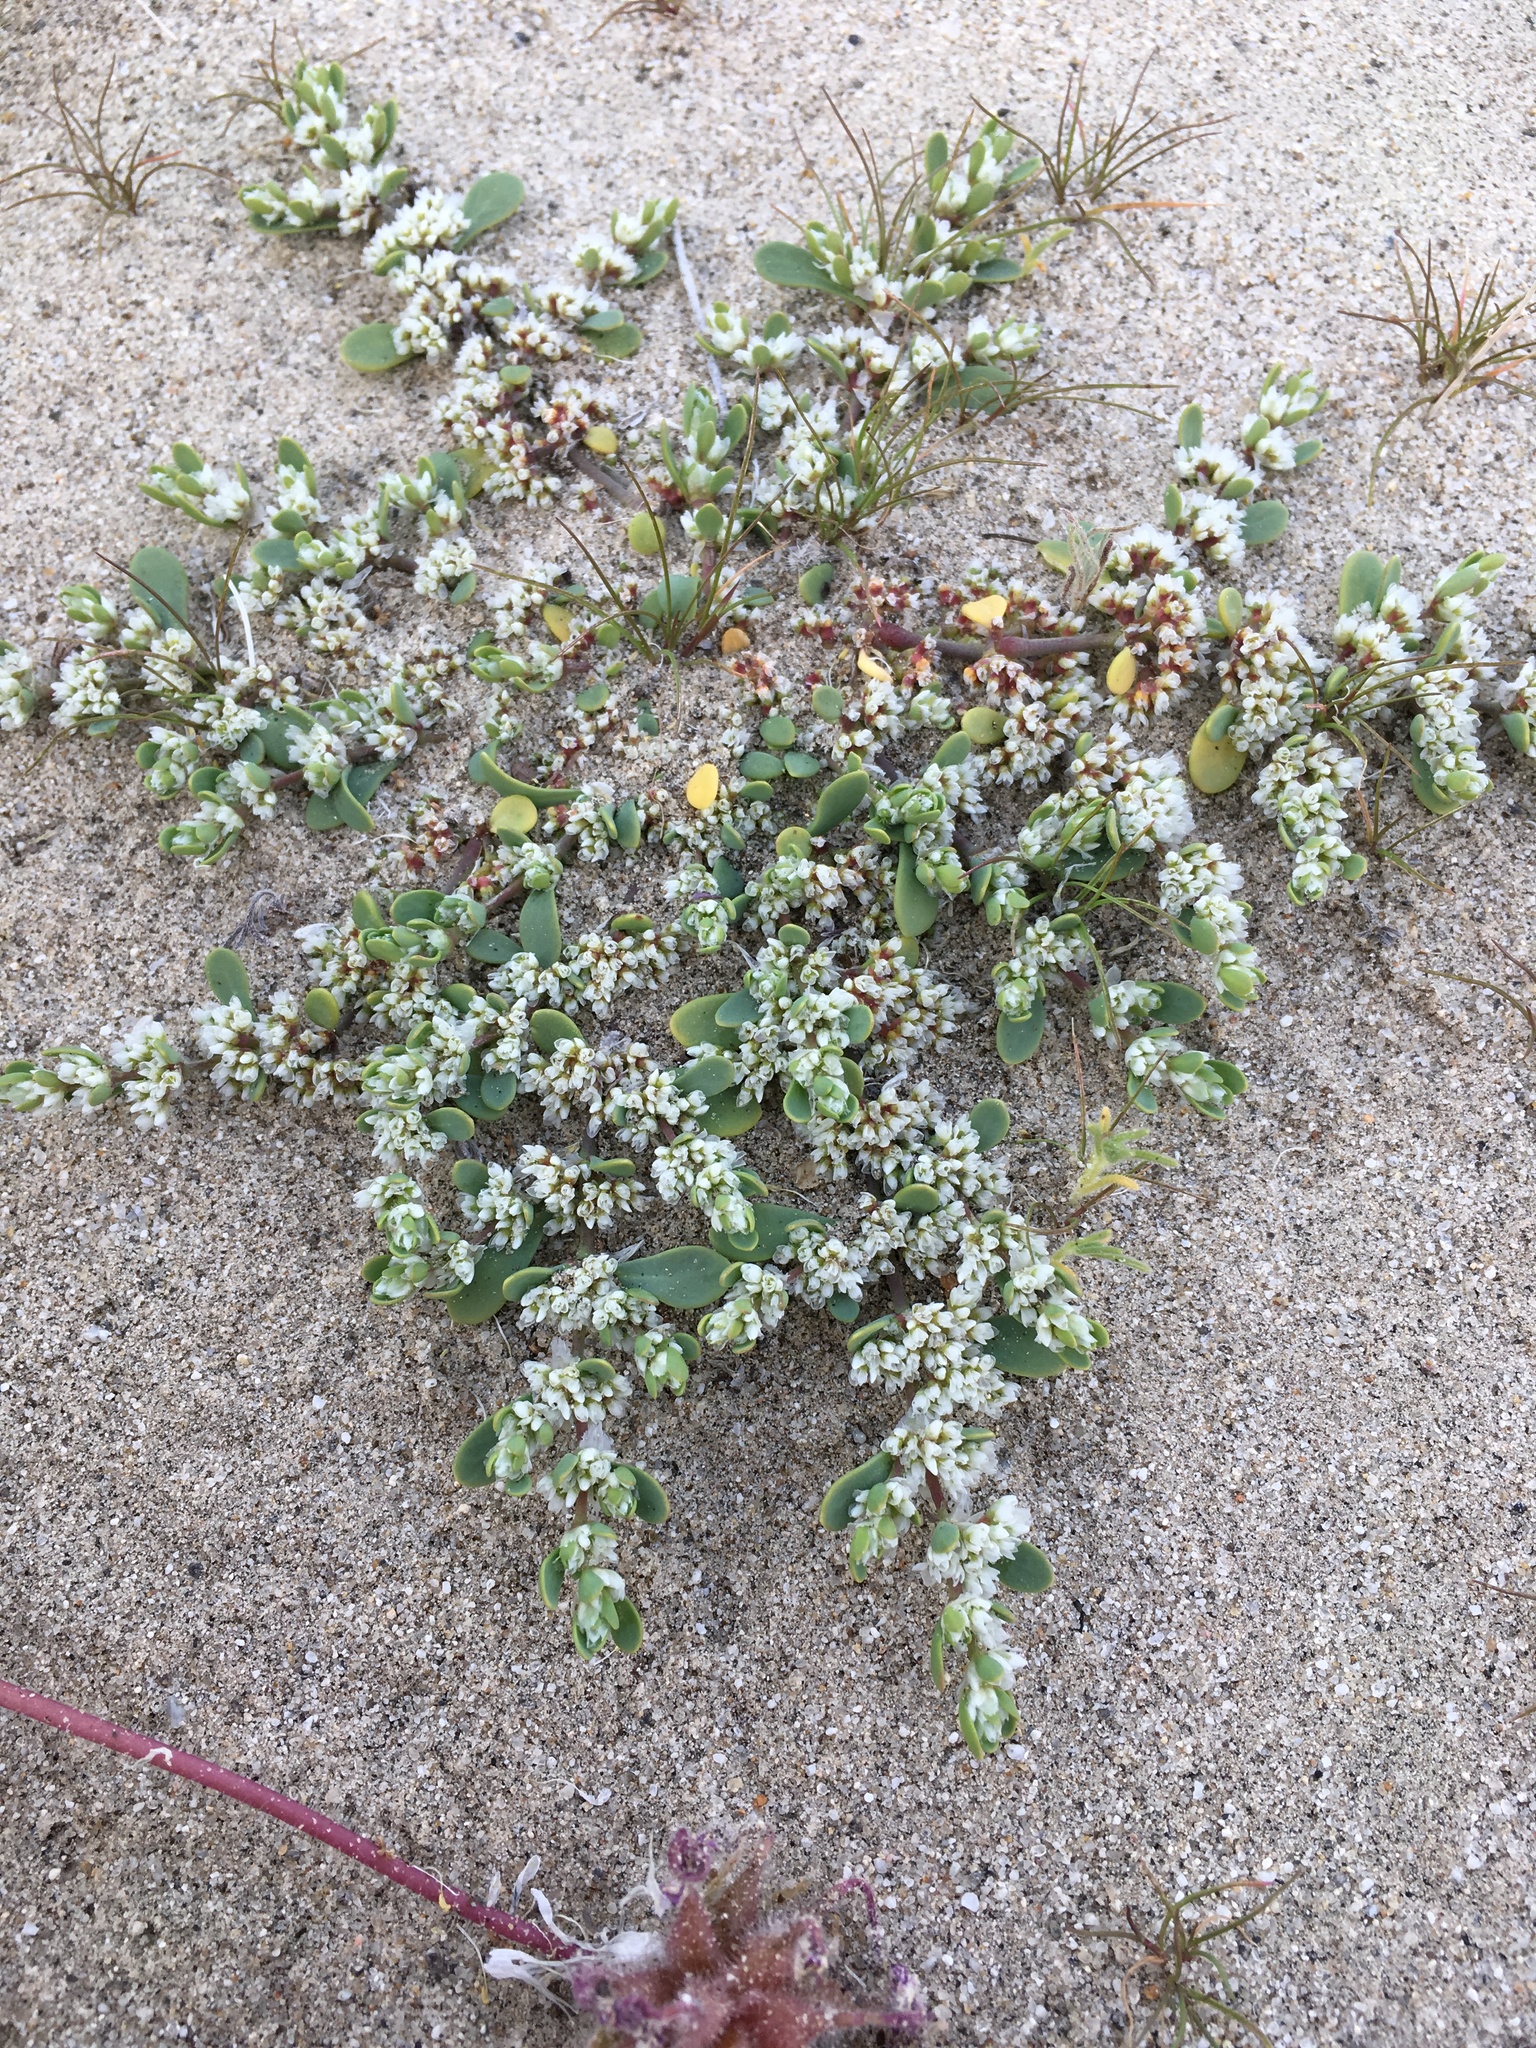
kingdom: Plantae
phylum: Tracheophyta
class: Magnoliopsida
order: Caryophyllales
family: Caryophyllaceae
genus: Achyronychia
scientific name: Achyronychia cooperi
